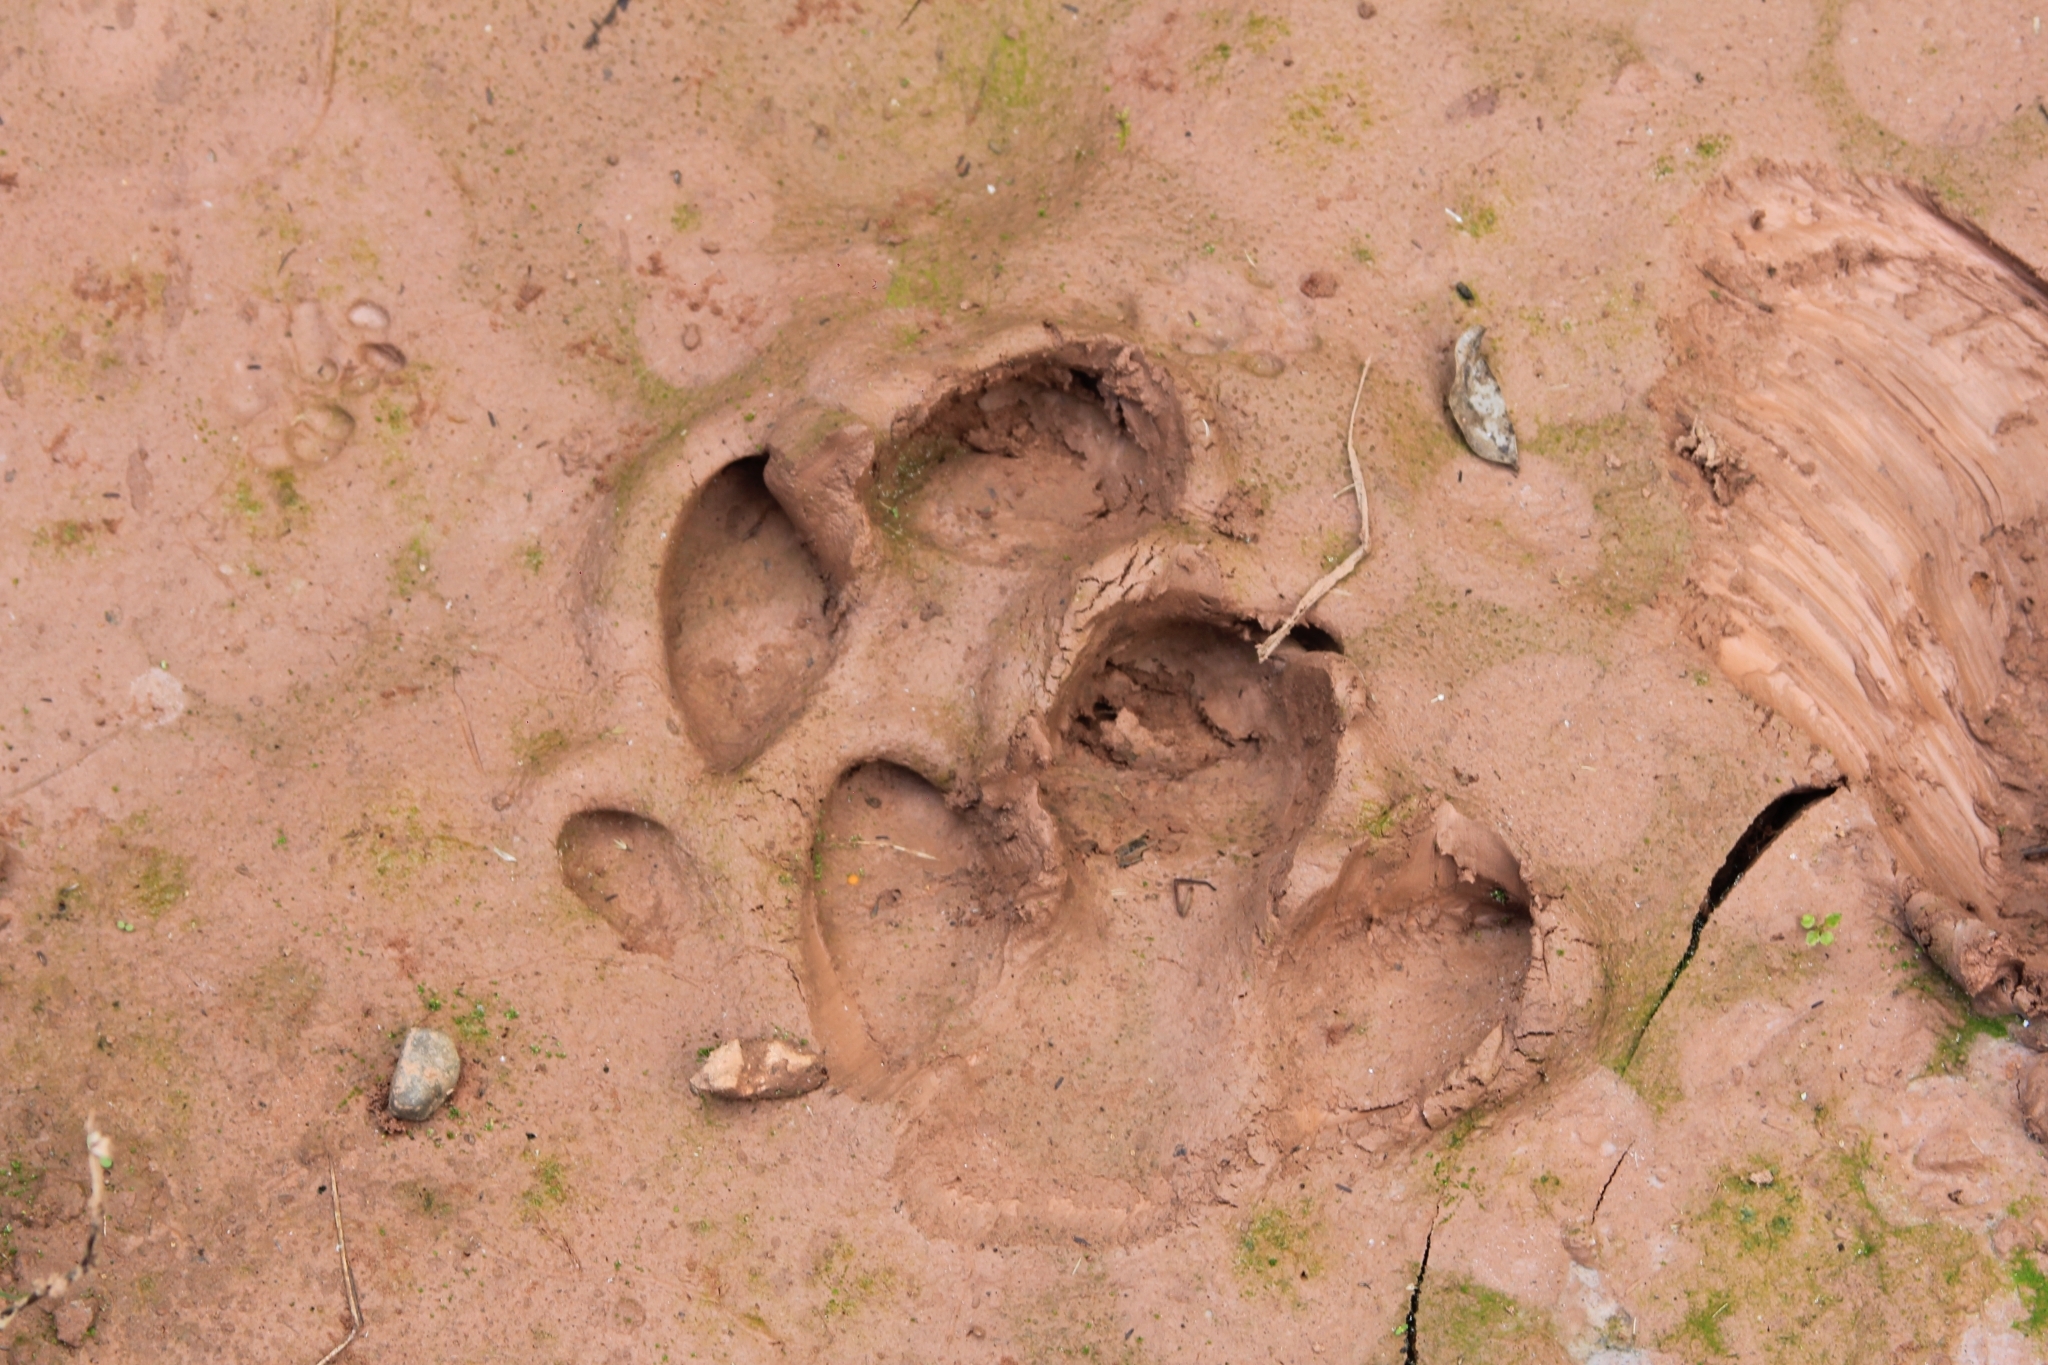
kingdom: Animalia
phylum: Chordata
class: Mammalia
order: Perissodactyla
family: Tapiridae
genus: Tapirus
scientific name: Tapirus terrestris
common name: Brazilian tapir
